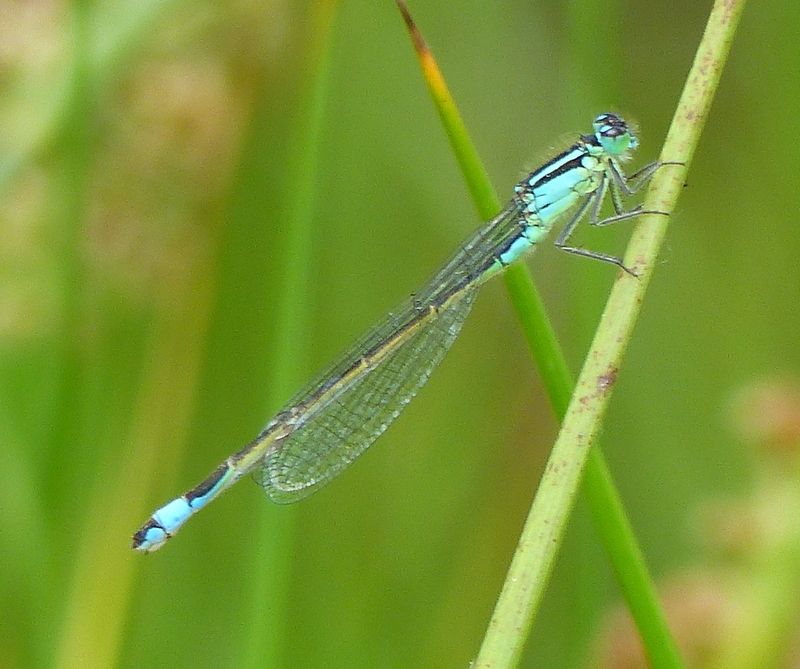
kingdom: Animalia
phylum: Arthropoda
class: Insecta
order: Odonata
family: Coenagrionidae
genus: Ischnura
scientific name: Ischnura elegans
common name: Blue-tailed damselfly
